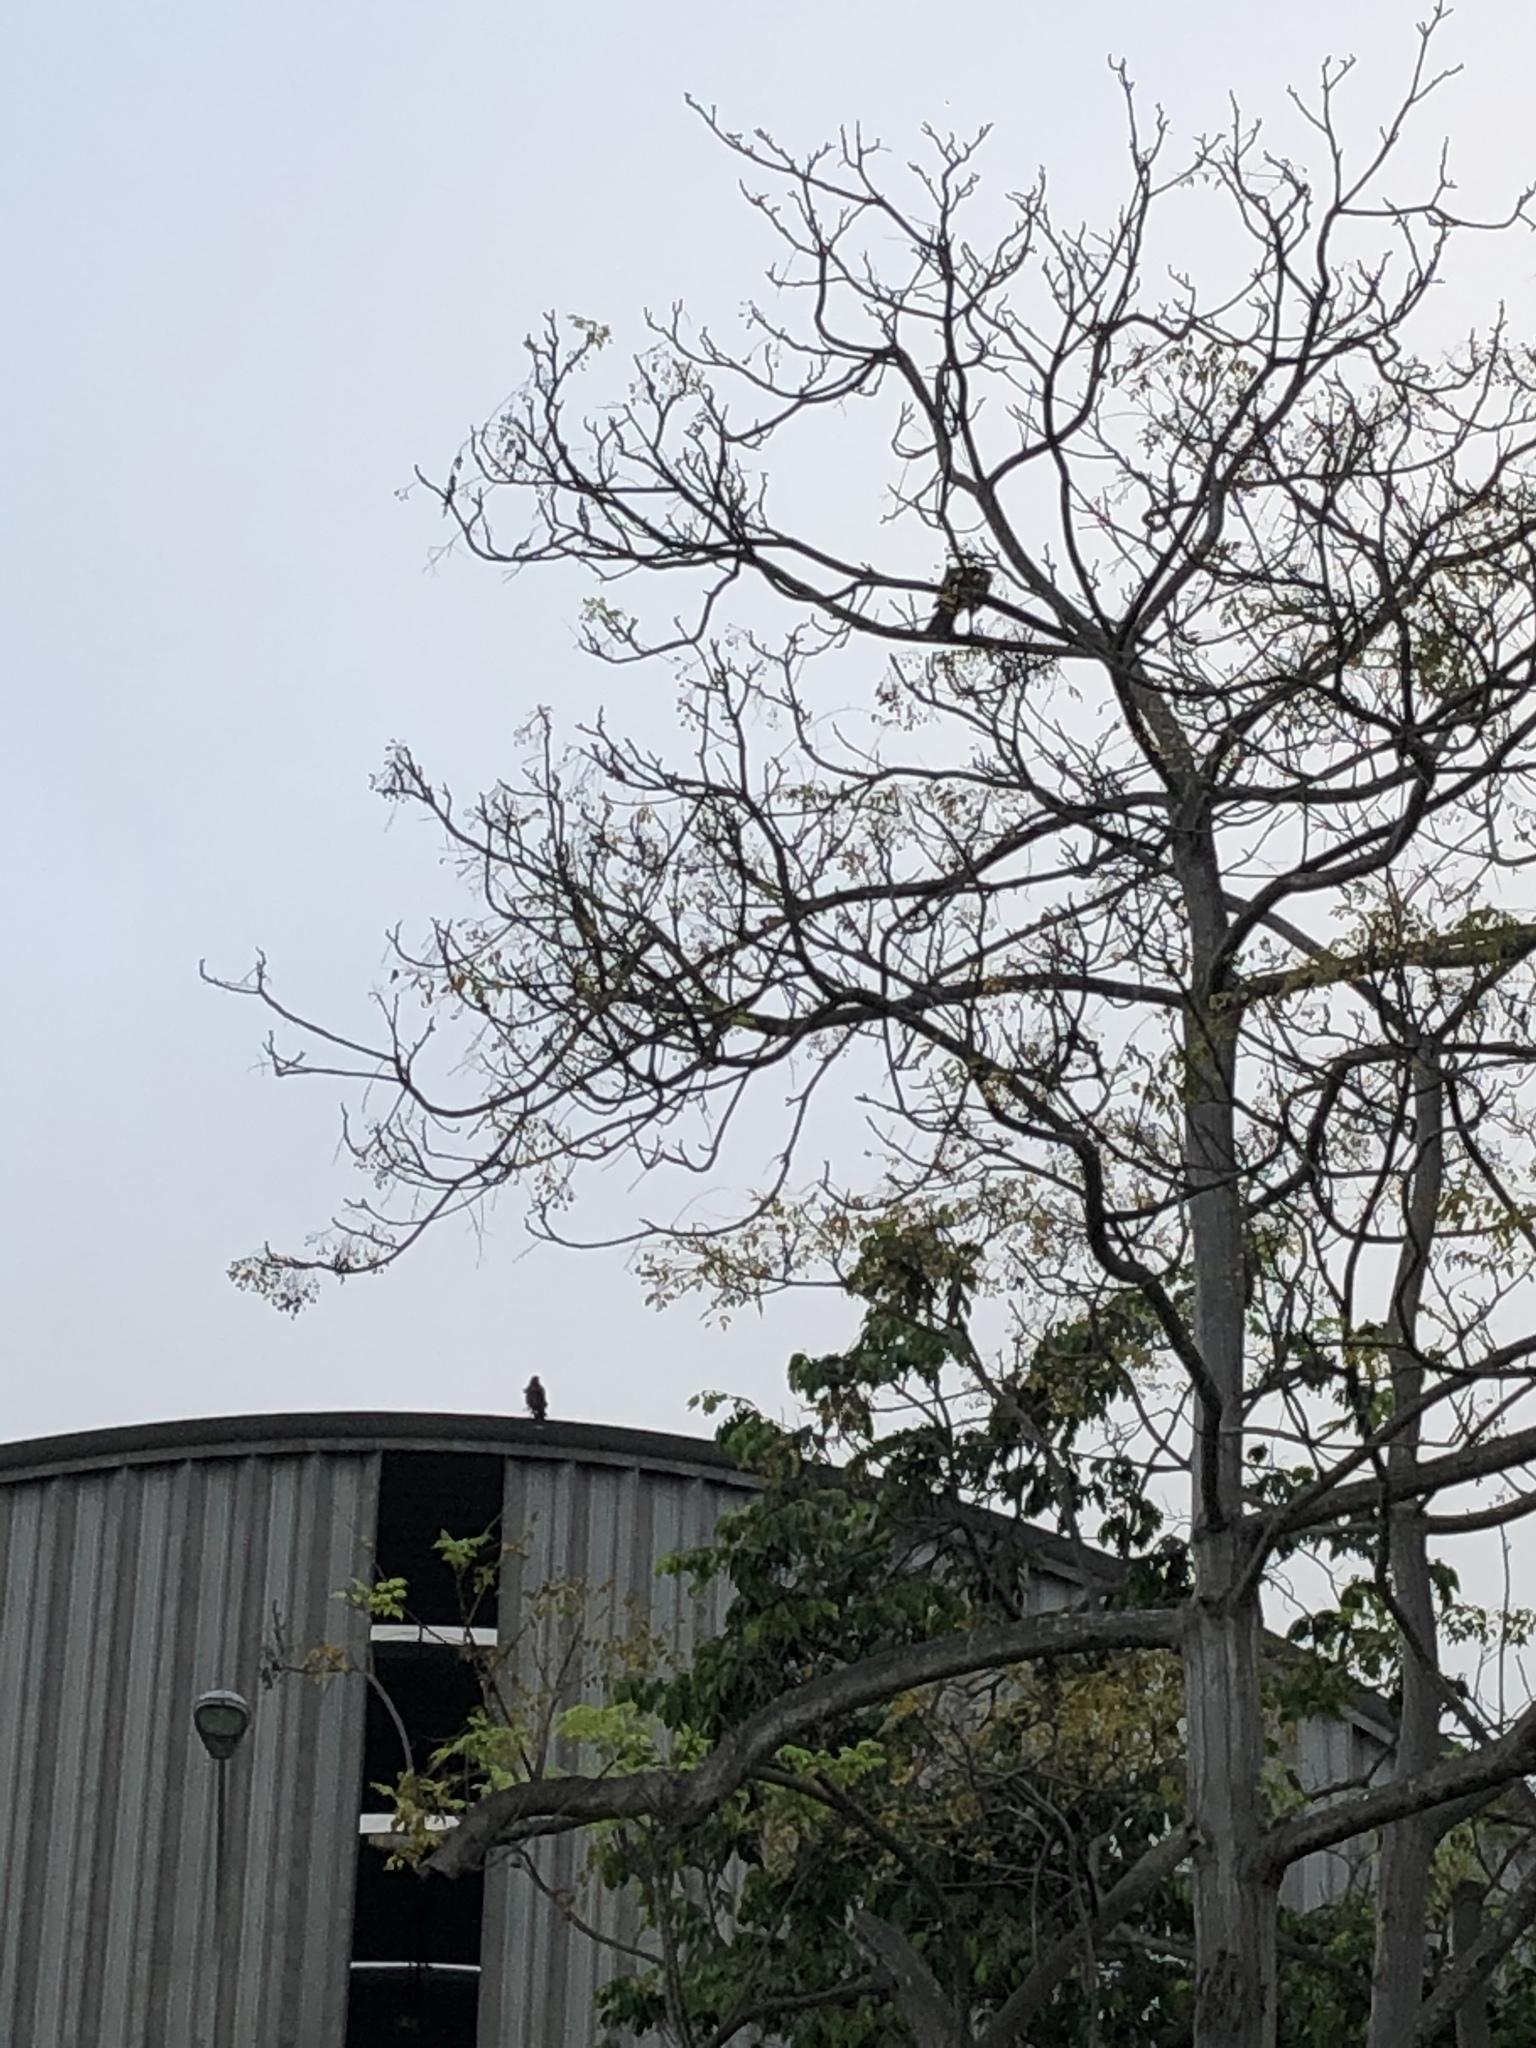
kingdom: Animalia
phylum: Chordata
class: Aves
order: Accipitriformes
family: Accipitridae
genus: Parabuteo
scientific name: Parabuteo unicinctus
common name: Harris's hawk
